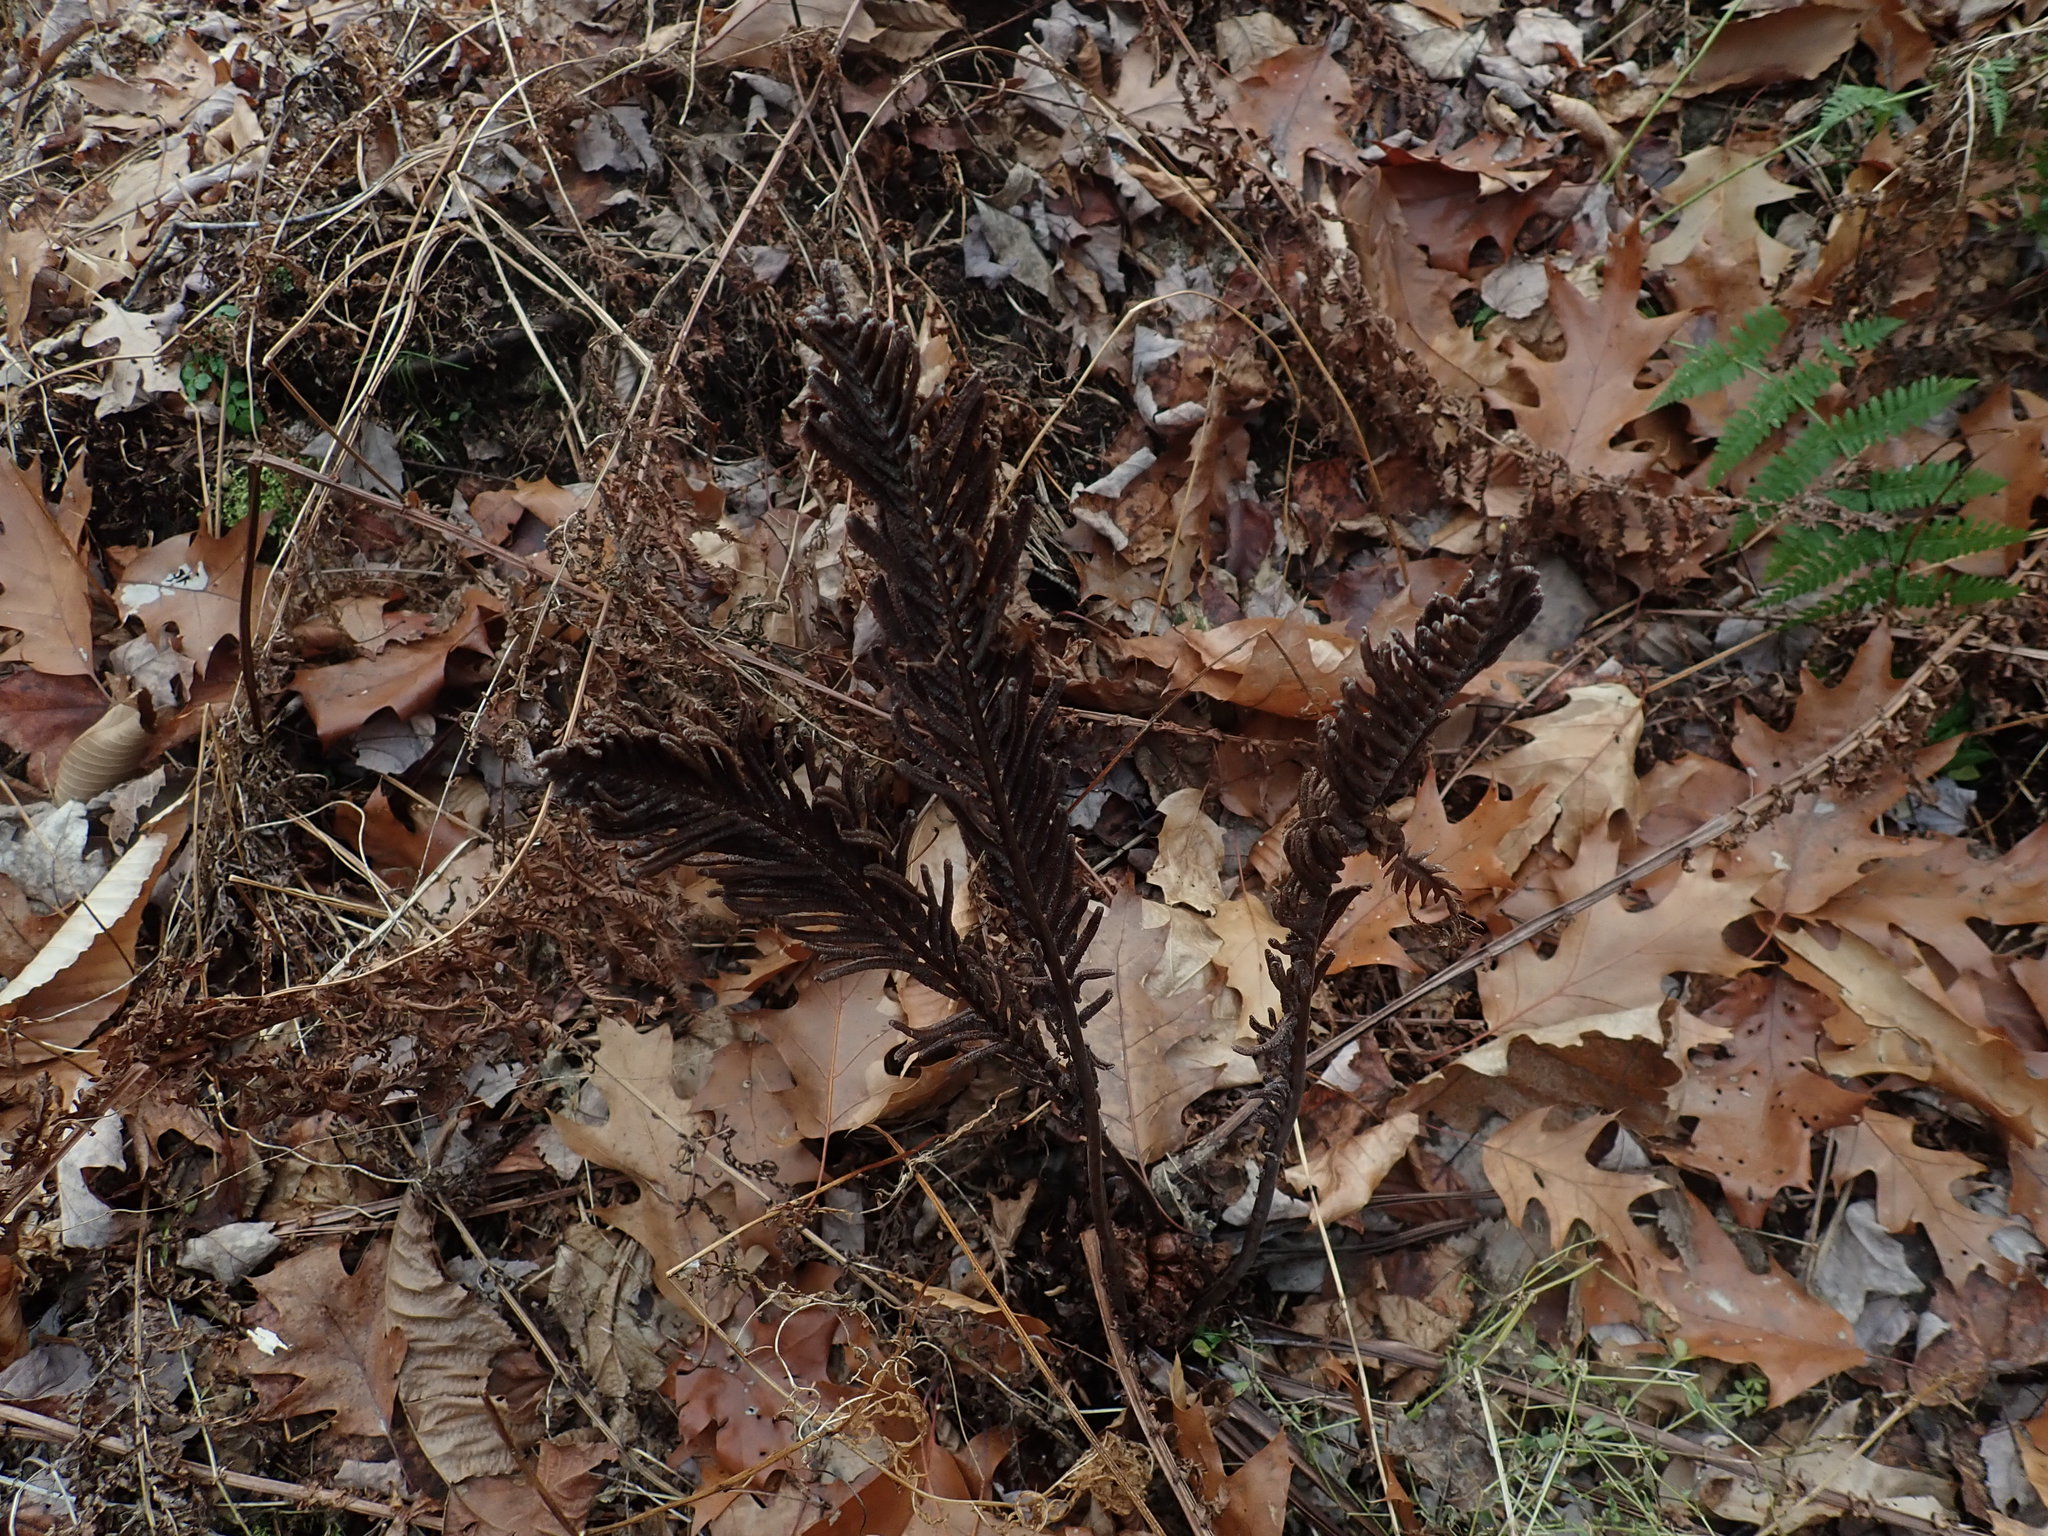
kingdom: Plantae
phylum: Tracheophyta
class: Polypodiopsida
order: Polypodiales
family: Onocleaceae
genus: Matteuccia
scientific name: Matteuccia struthiopteris
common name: Ostrich fern
